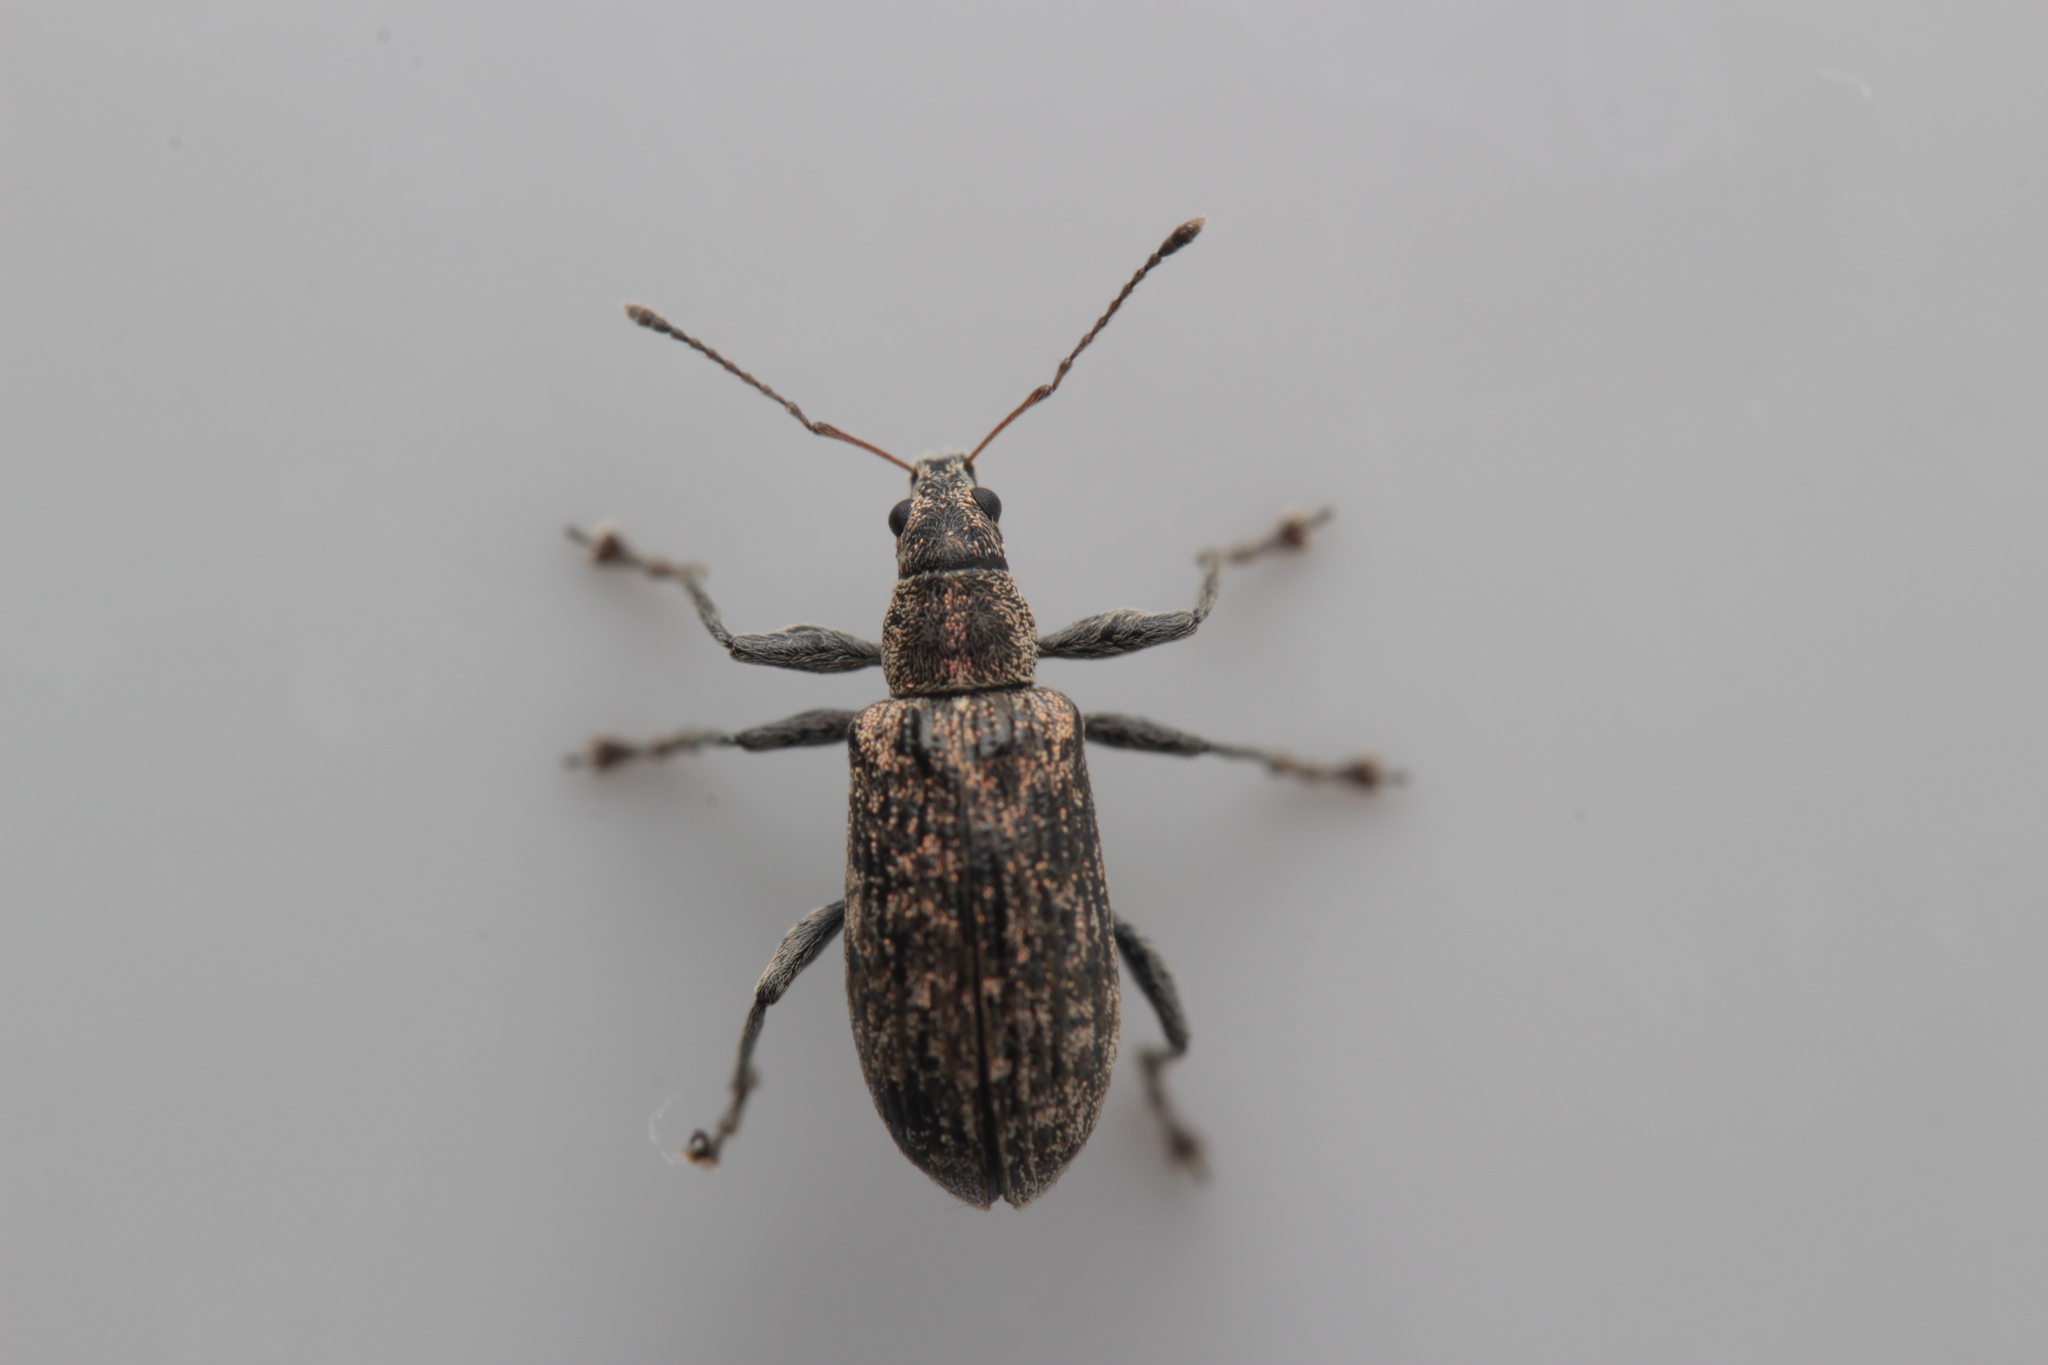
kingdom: Animalia
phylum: Arthropoda
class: Insecta
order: Coleoptera
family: Curculionidae
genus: Polydrusus
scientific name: Polydrusus pilosus
